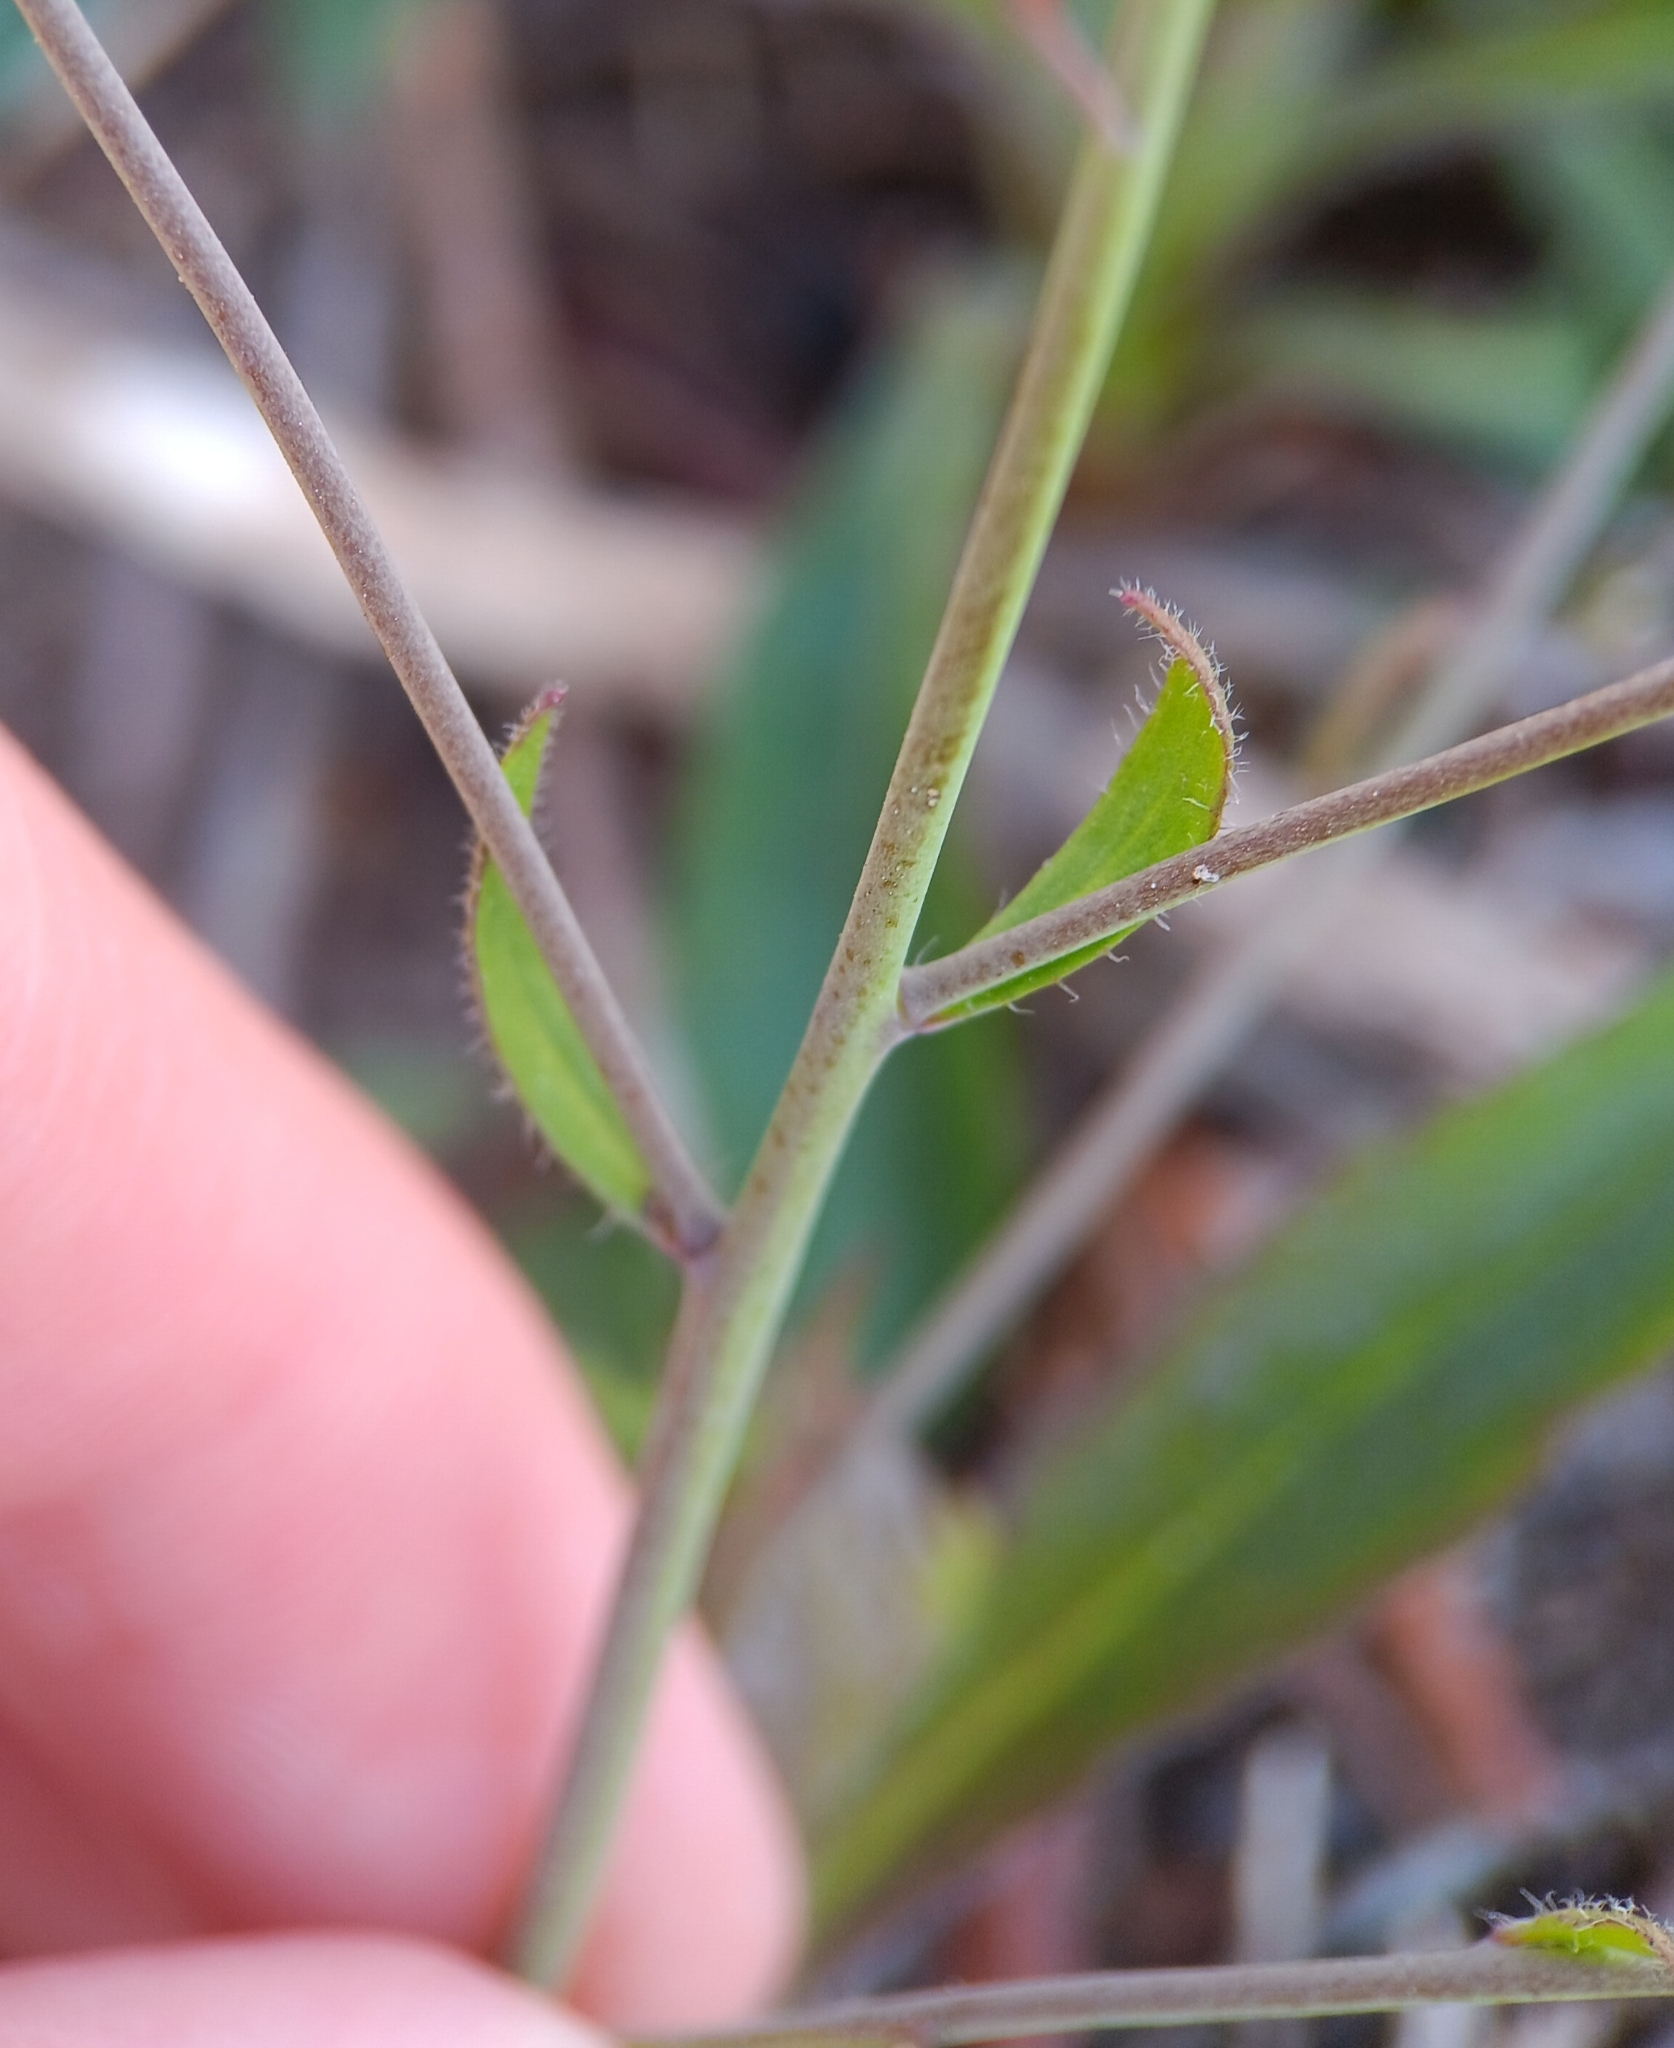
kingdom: Plantae
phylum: Tracheophyta
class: Magnoliopsida
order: Brassicales
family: Brassicaceae
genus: Arabidopsis
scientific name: Arabidopsis thaliana
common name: Thale cress
